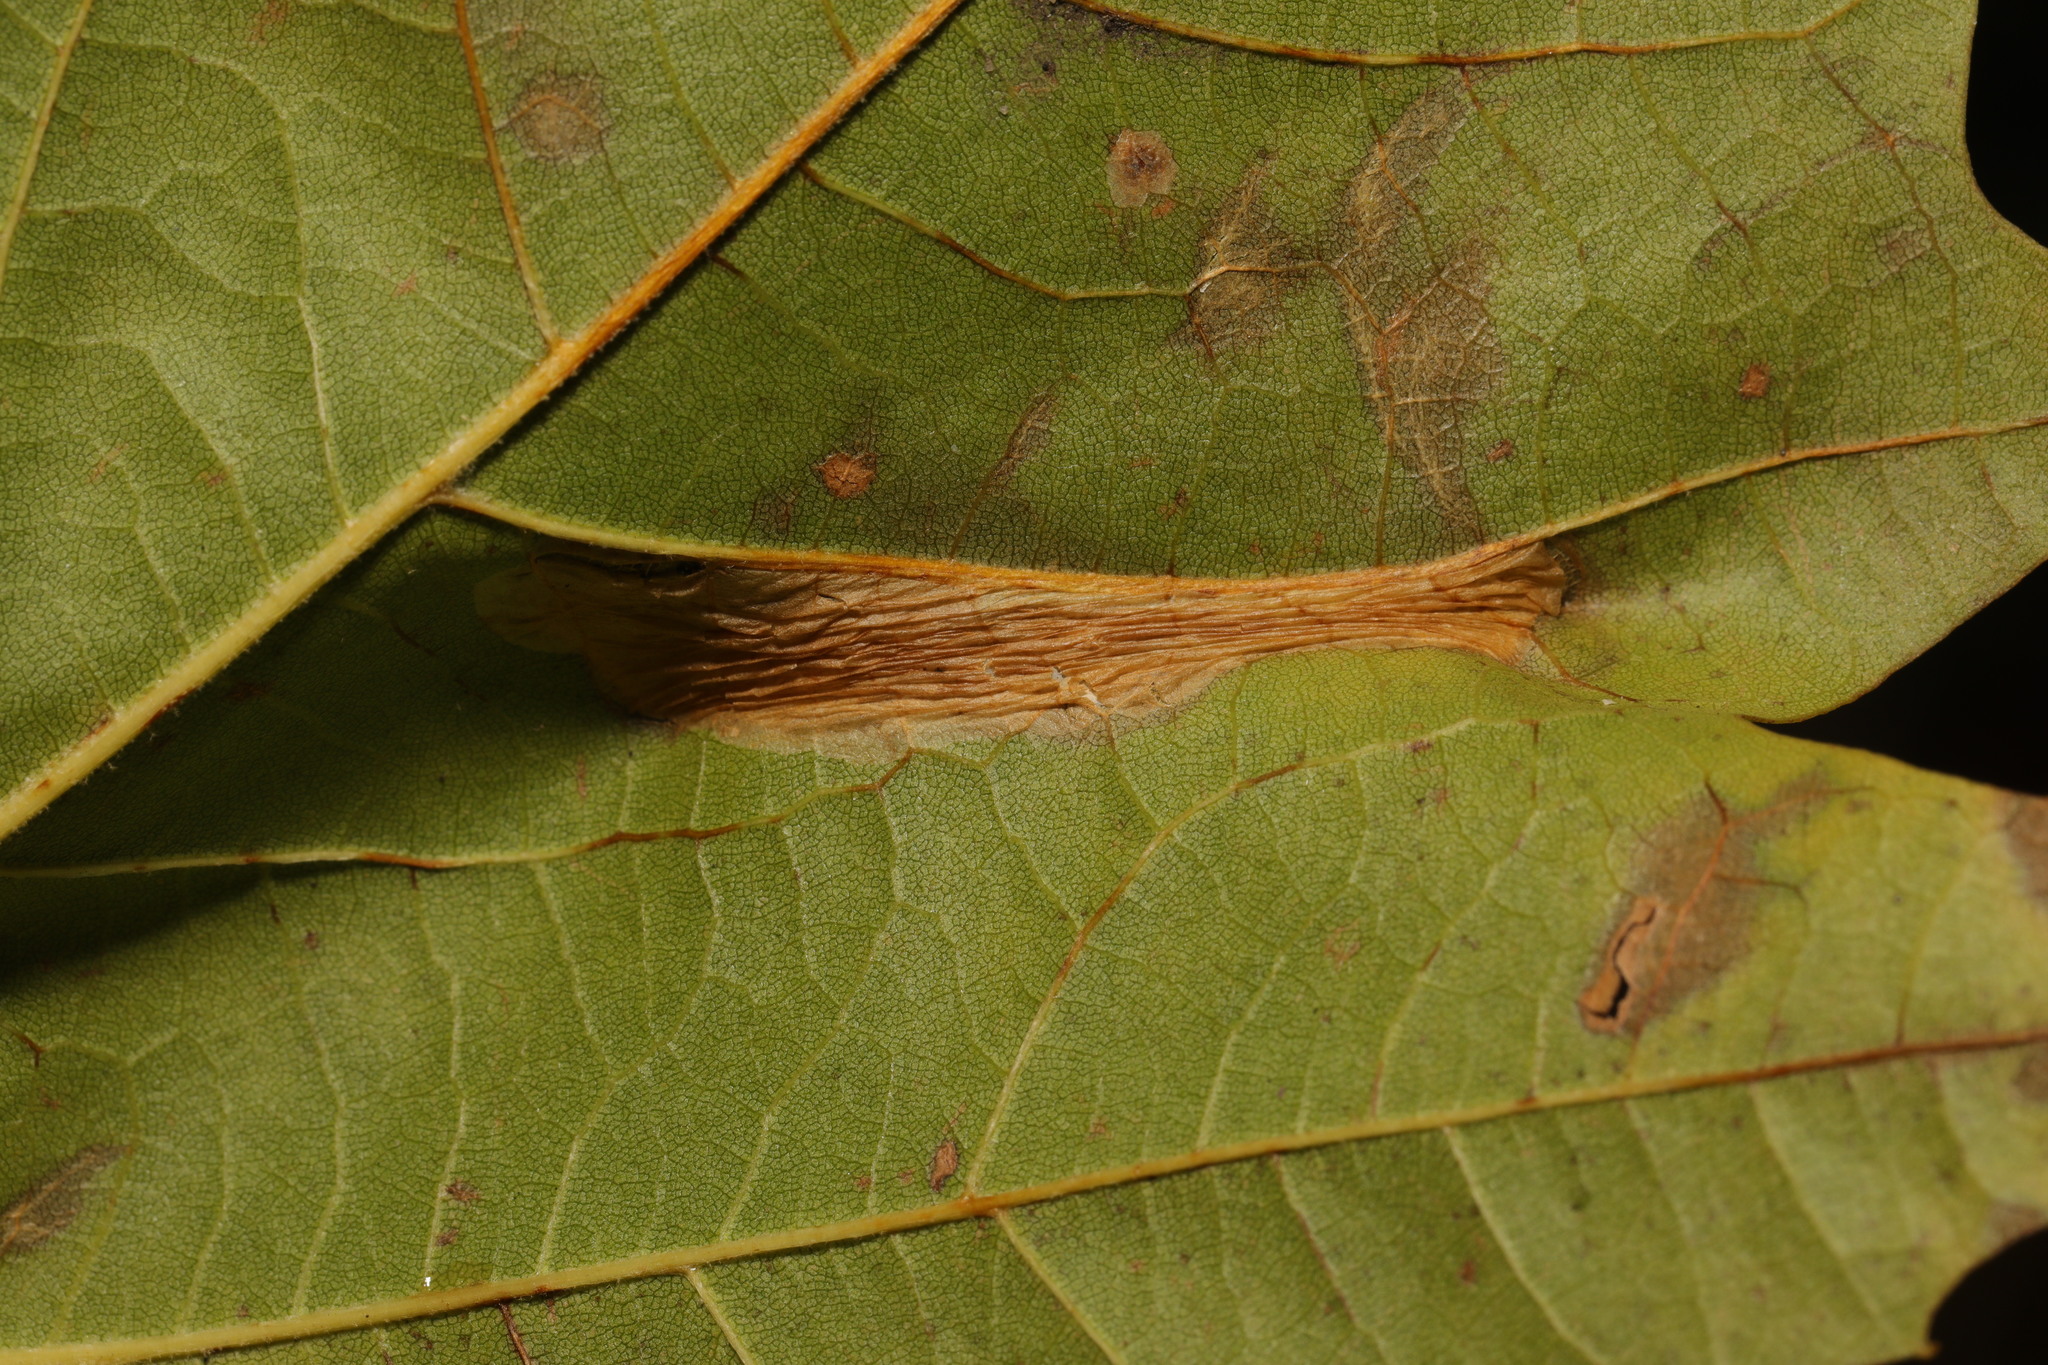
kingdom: Animalia
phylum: Arthropoda
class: Insecta
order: Lepidoptera
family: Gracillariidae
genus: Phyllonorycter
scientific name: Phyllonorycter platani
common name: London midget
